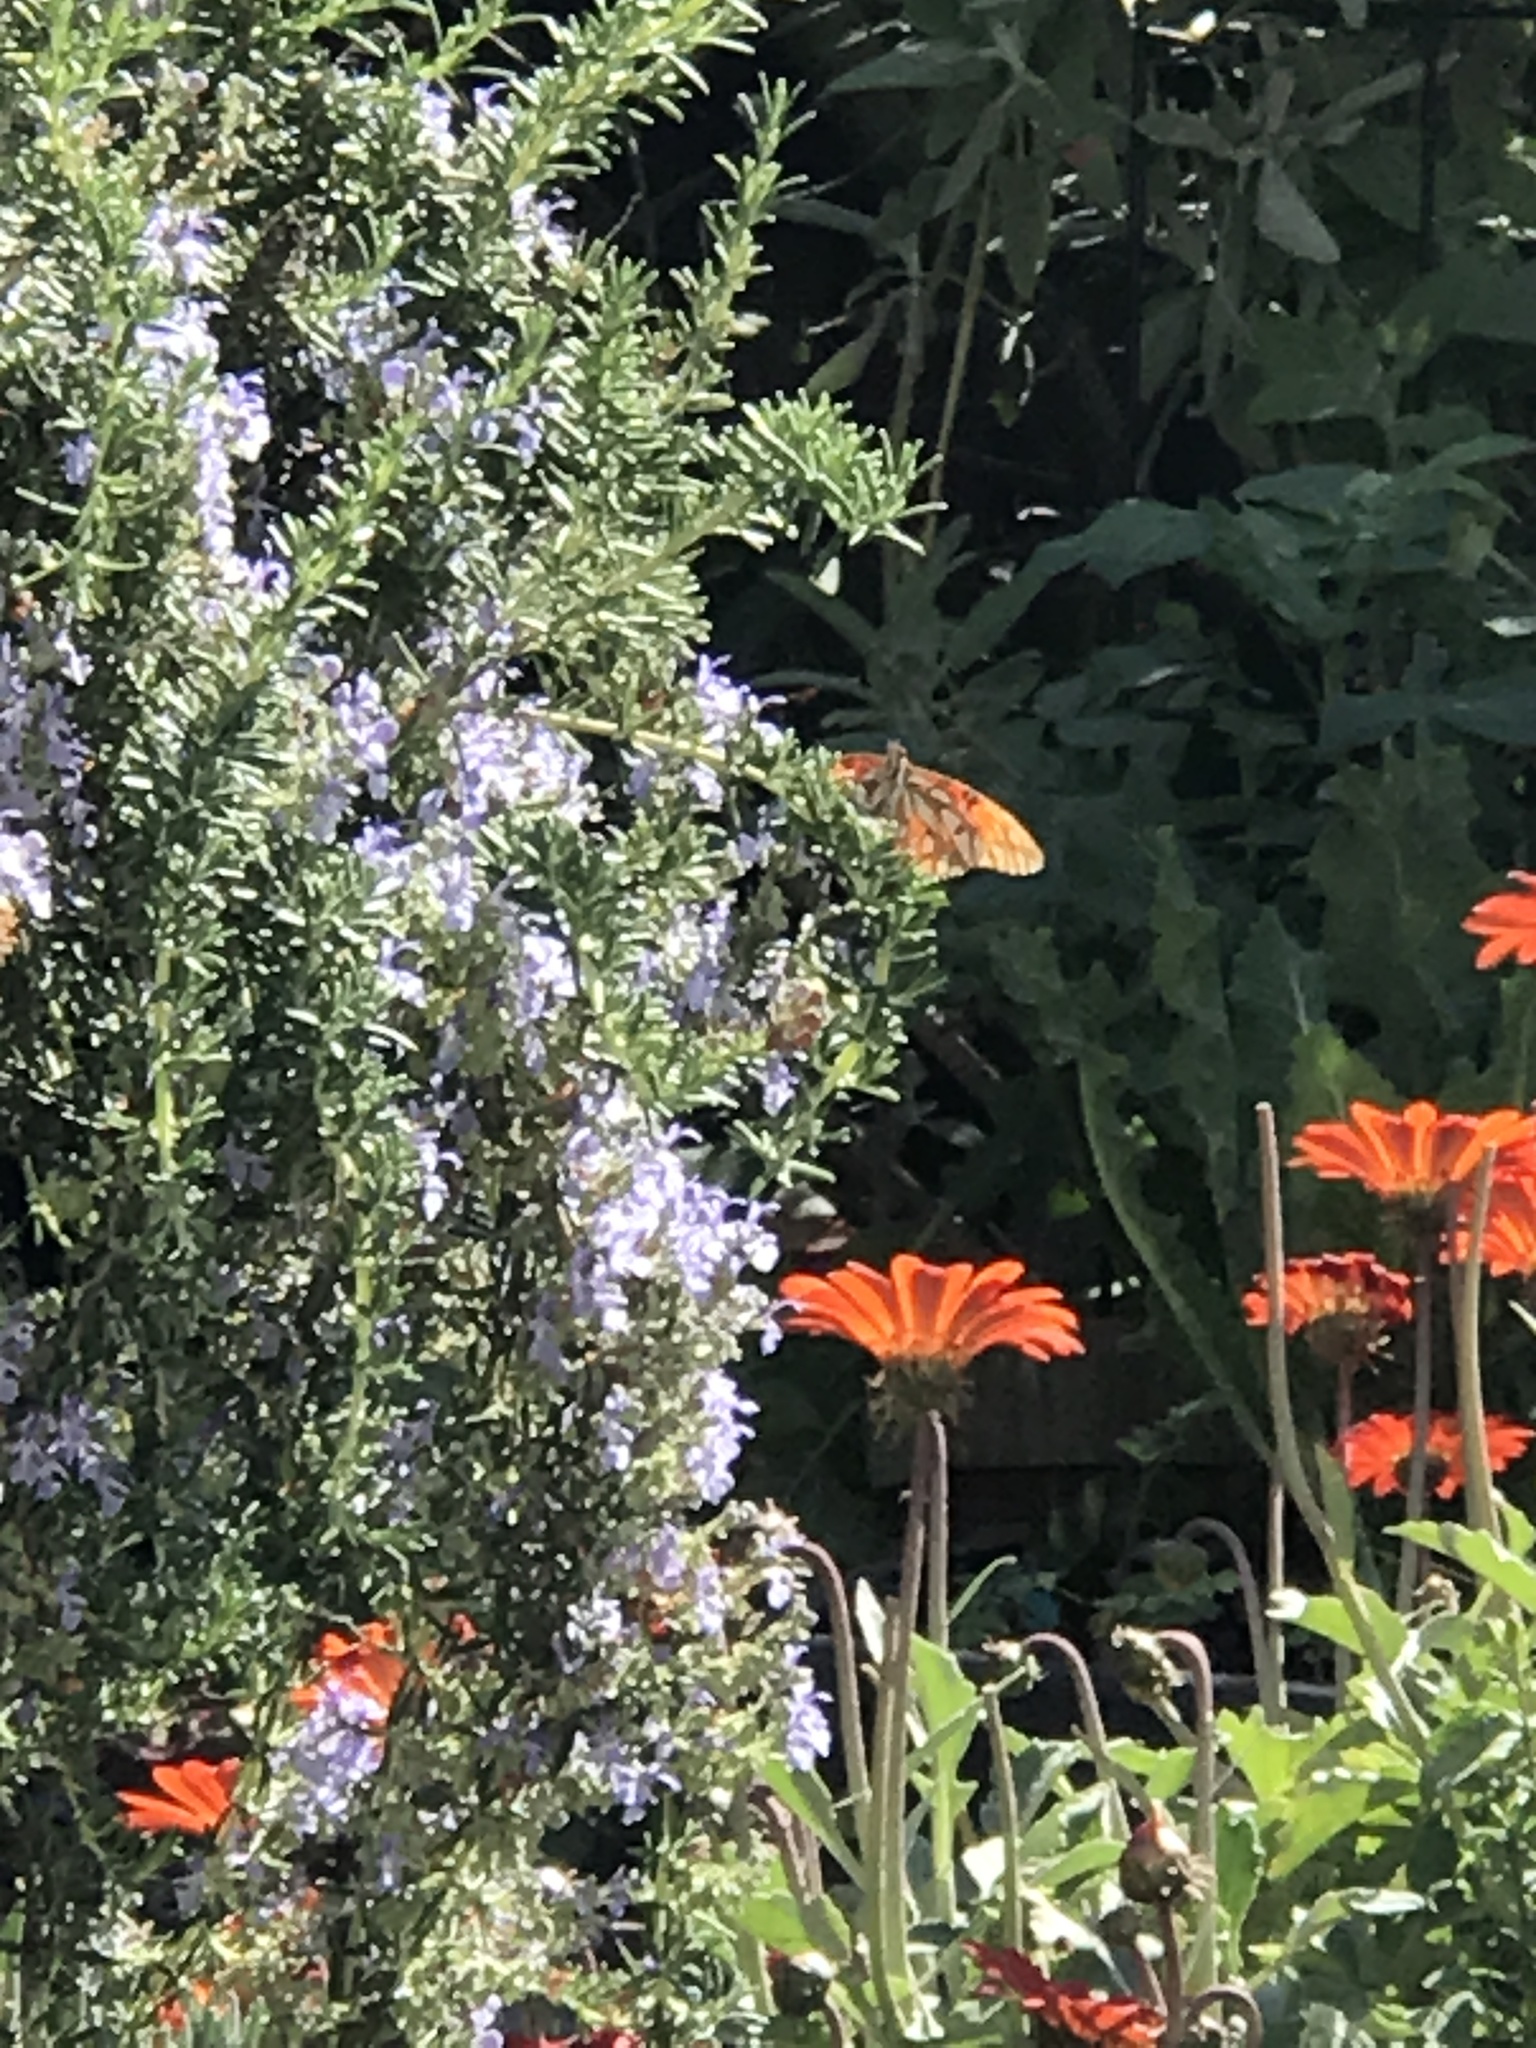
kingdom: Animalia
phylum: Arthropoda
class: Insecta
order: Lepidoptera
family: Nymphalidae
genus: Dione
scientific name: Dione vanillae
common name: Gulf fritillary
